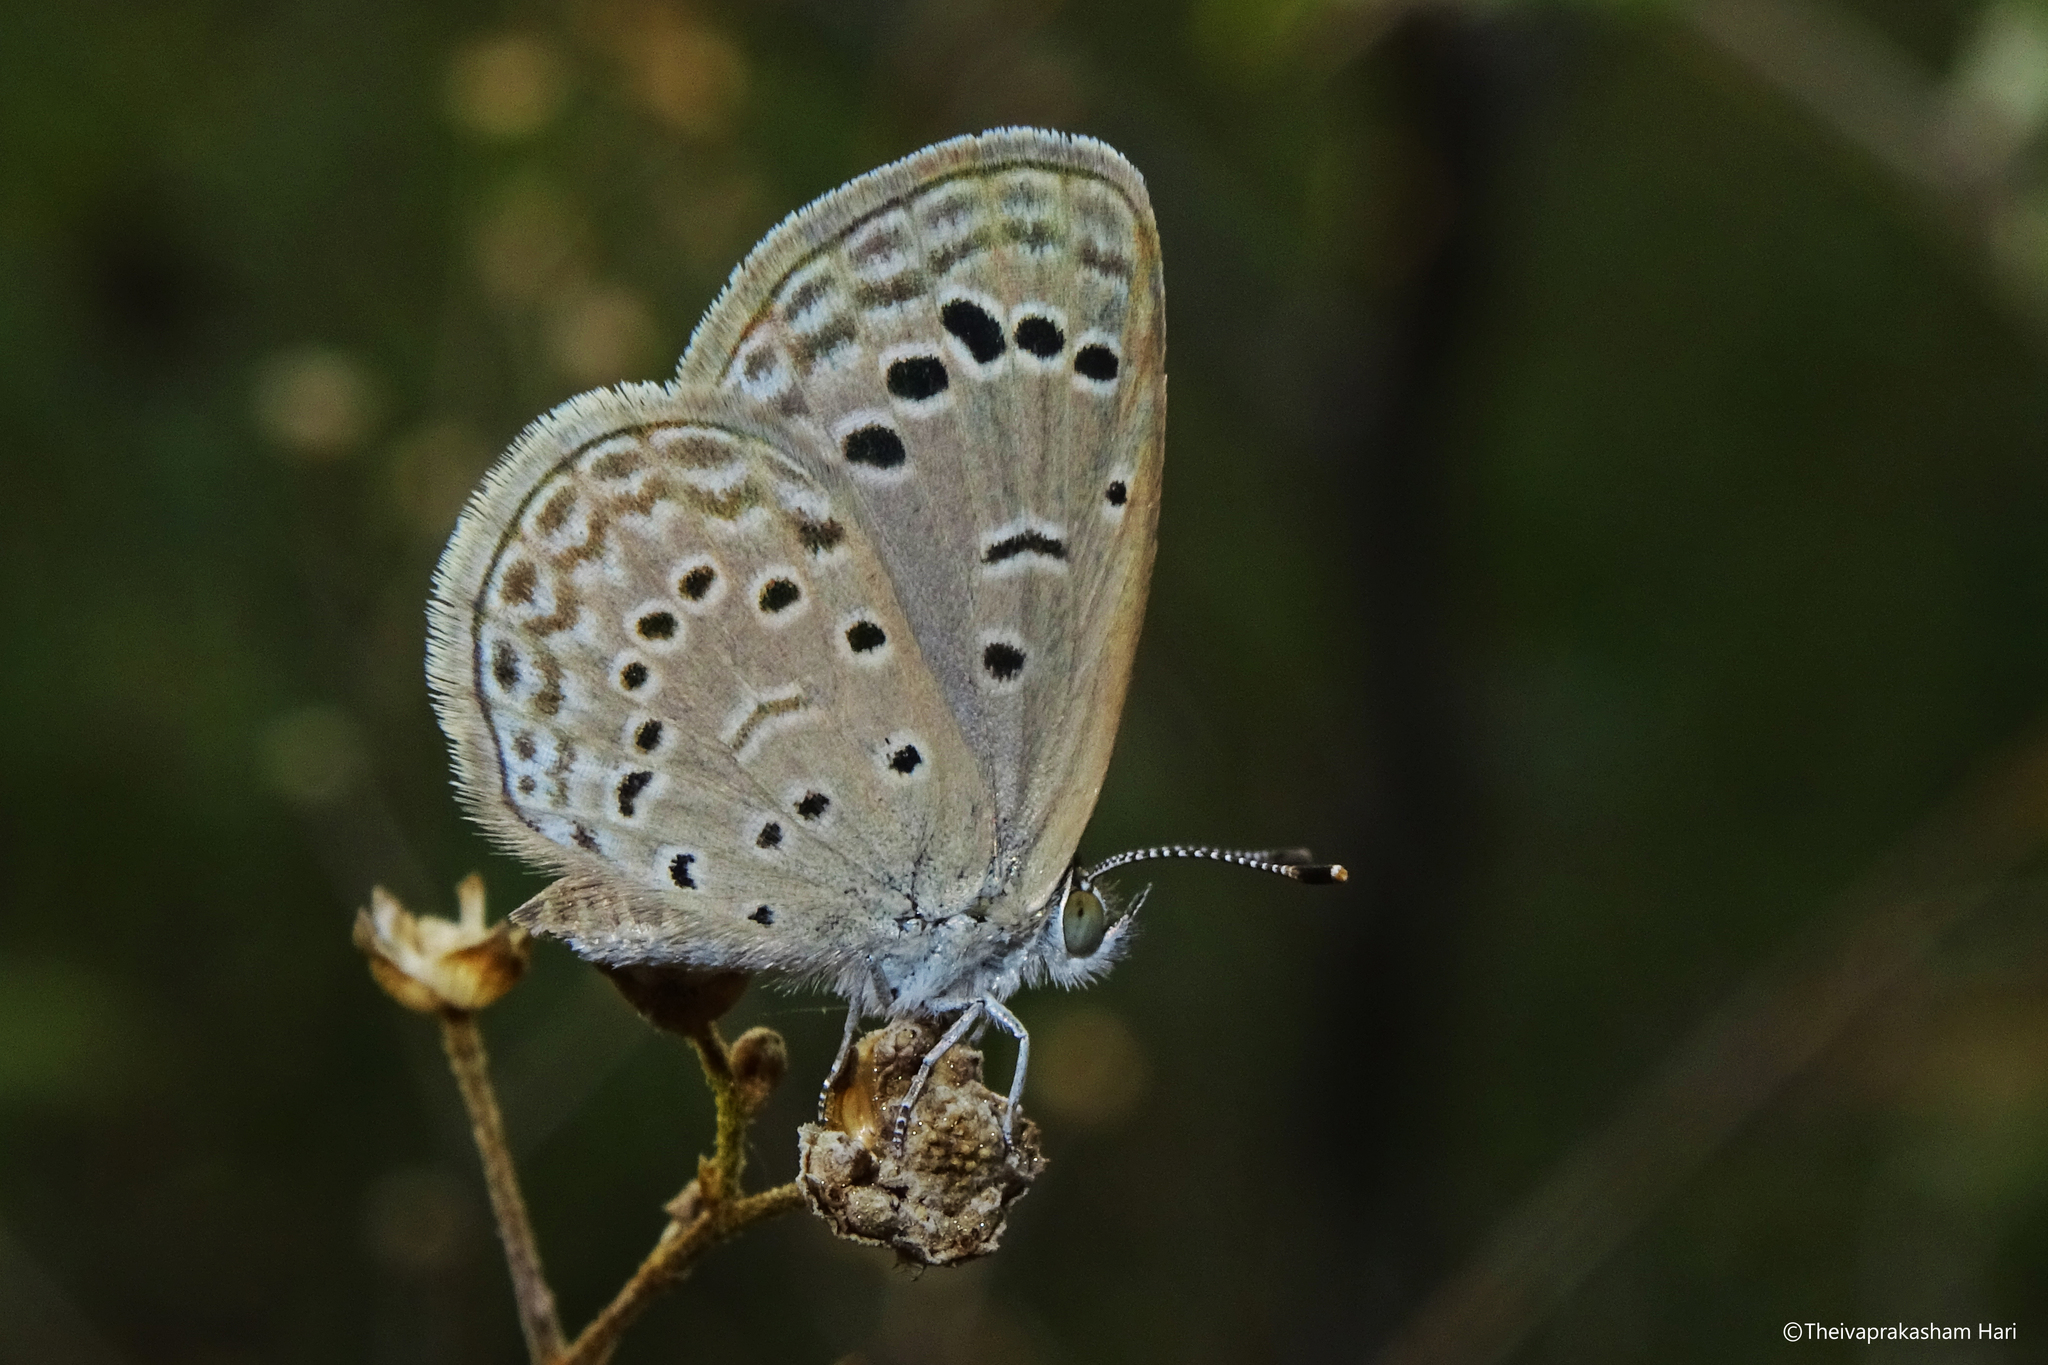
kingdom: Animalia
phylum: Arthropoda
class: Insecta
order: Lepidoptera
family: Lycaenidae
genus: Zizeeria
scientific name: Zizeeria karsandra
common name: Dark grass blue
